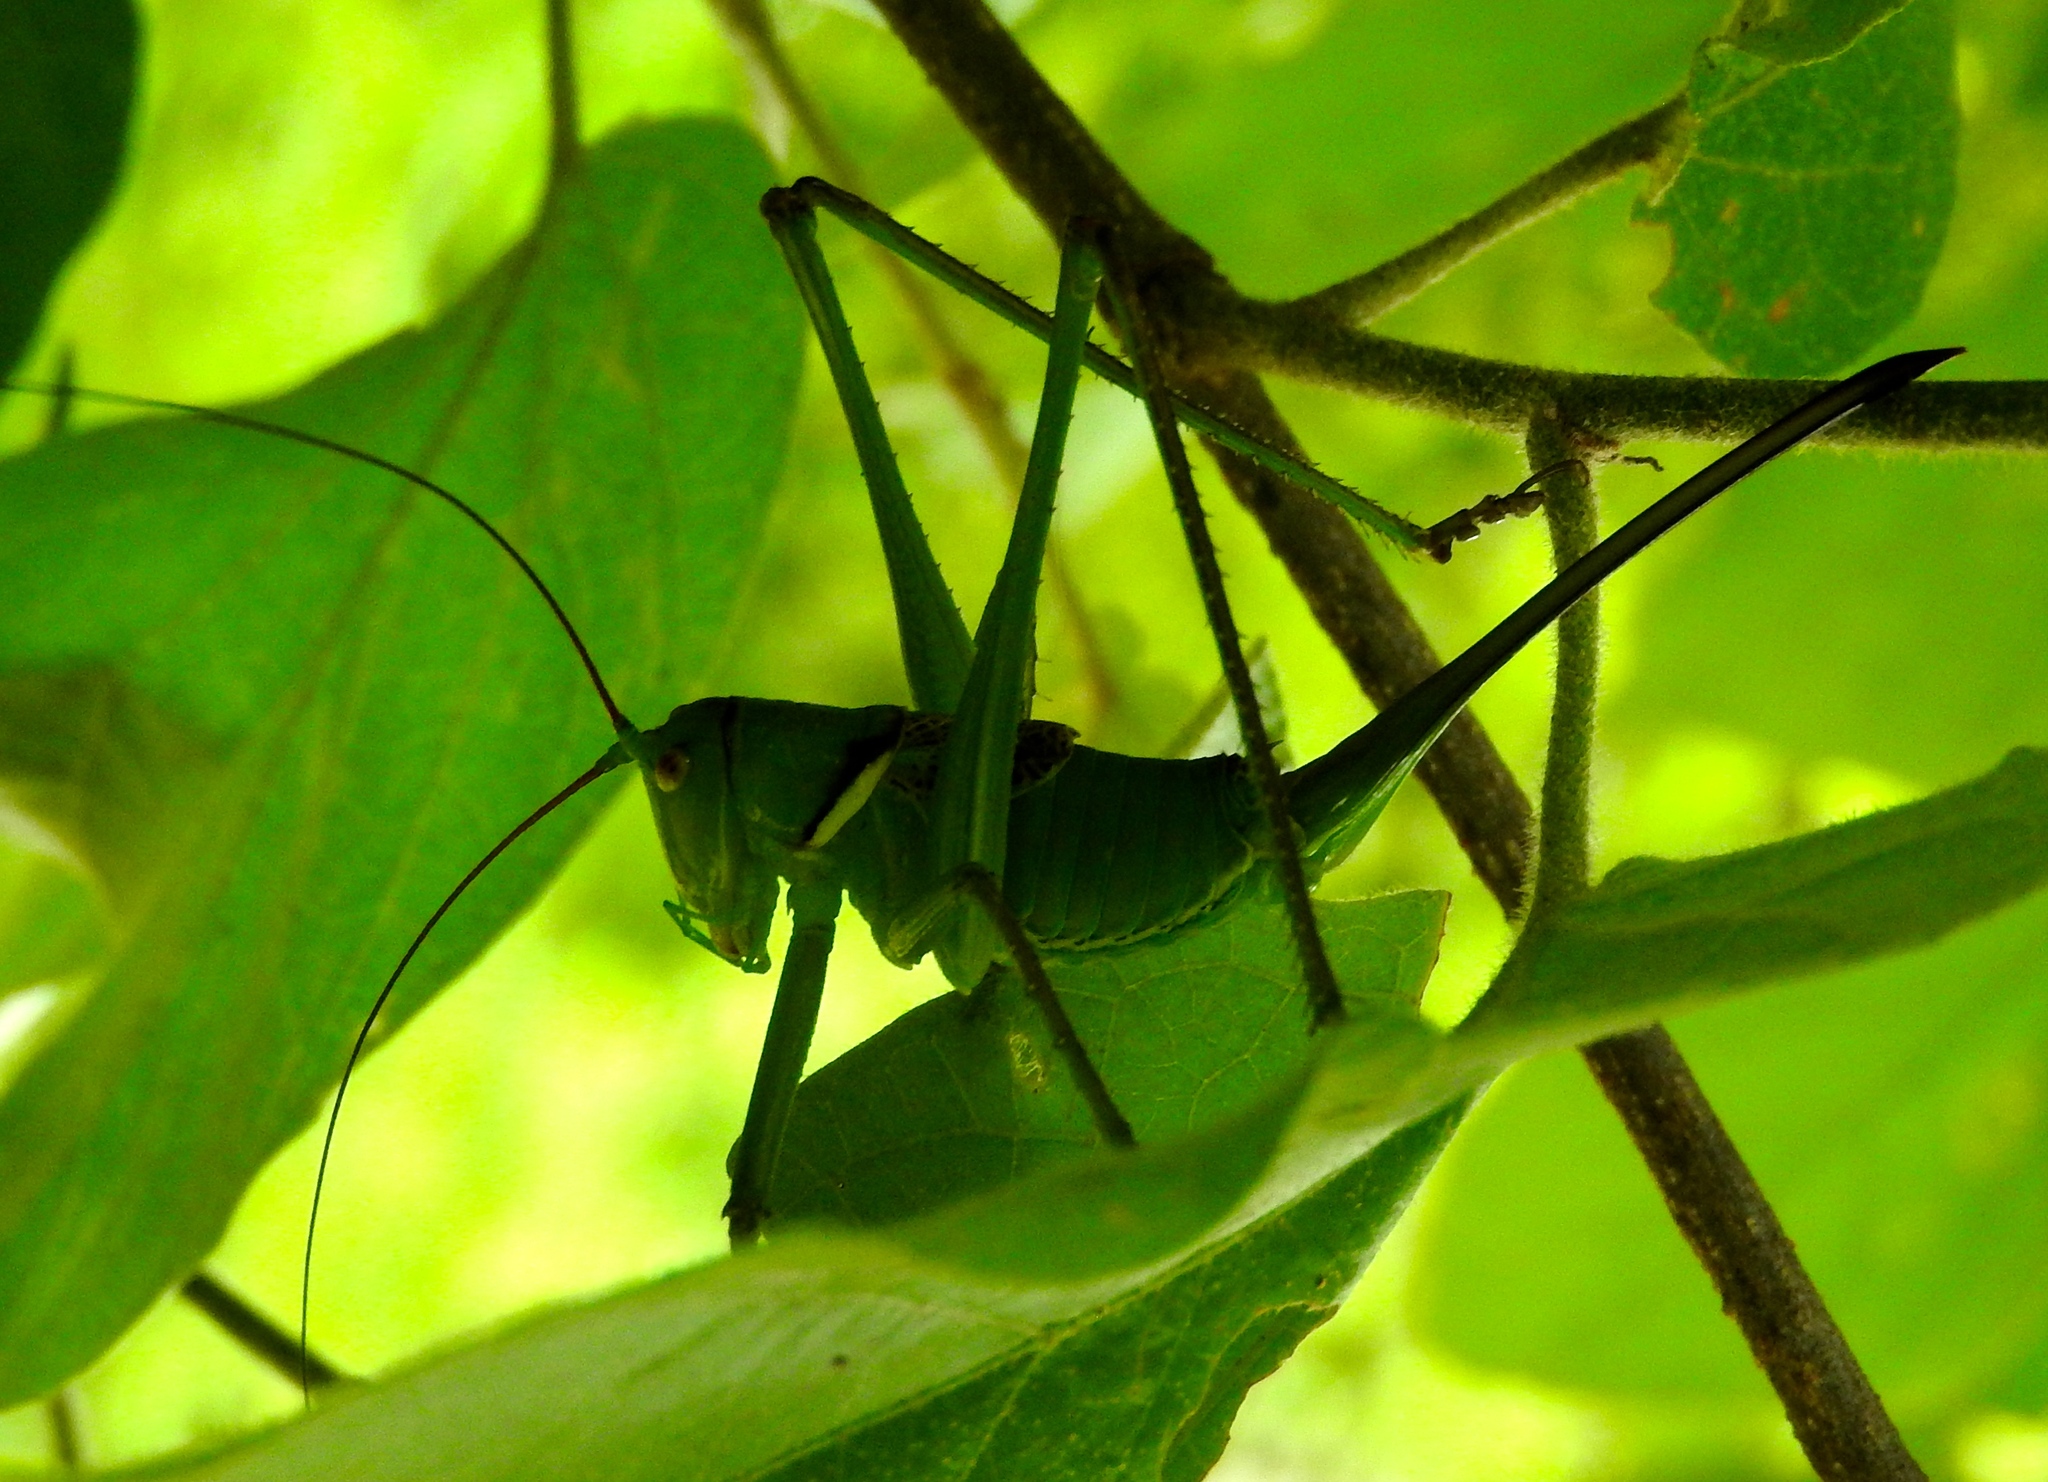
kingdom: Animalia
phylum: Arthropoda
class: Insecta
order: Orthoptera
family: Tettigoniidae
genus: Neobarrettia
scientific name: Neobarrettia sinaloae
